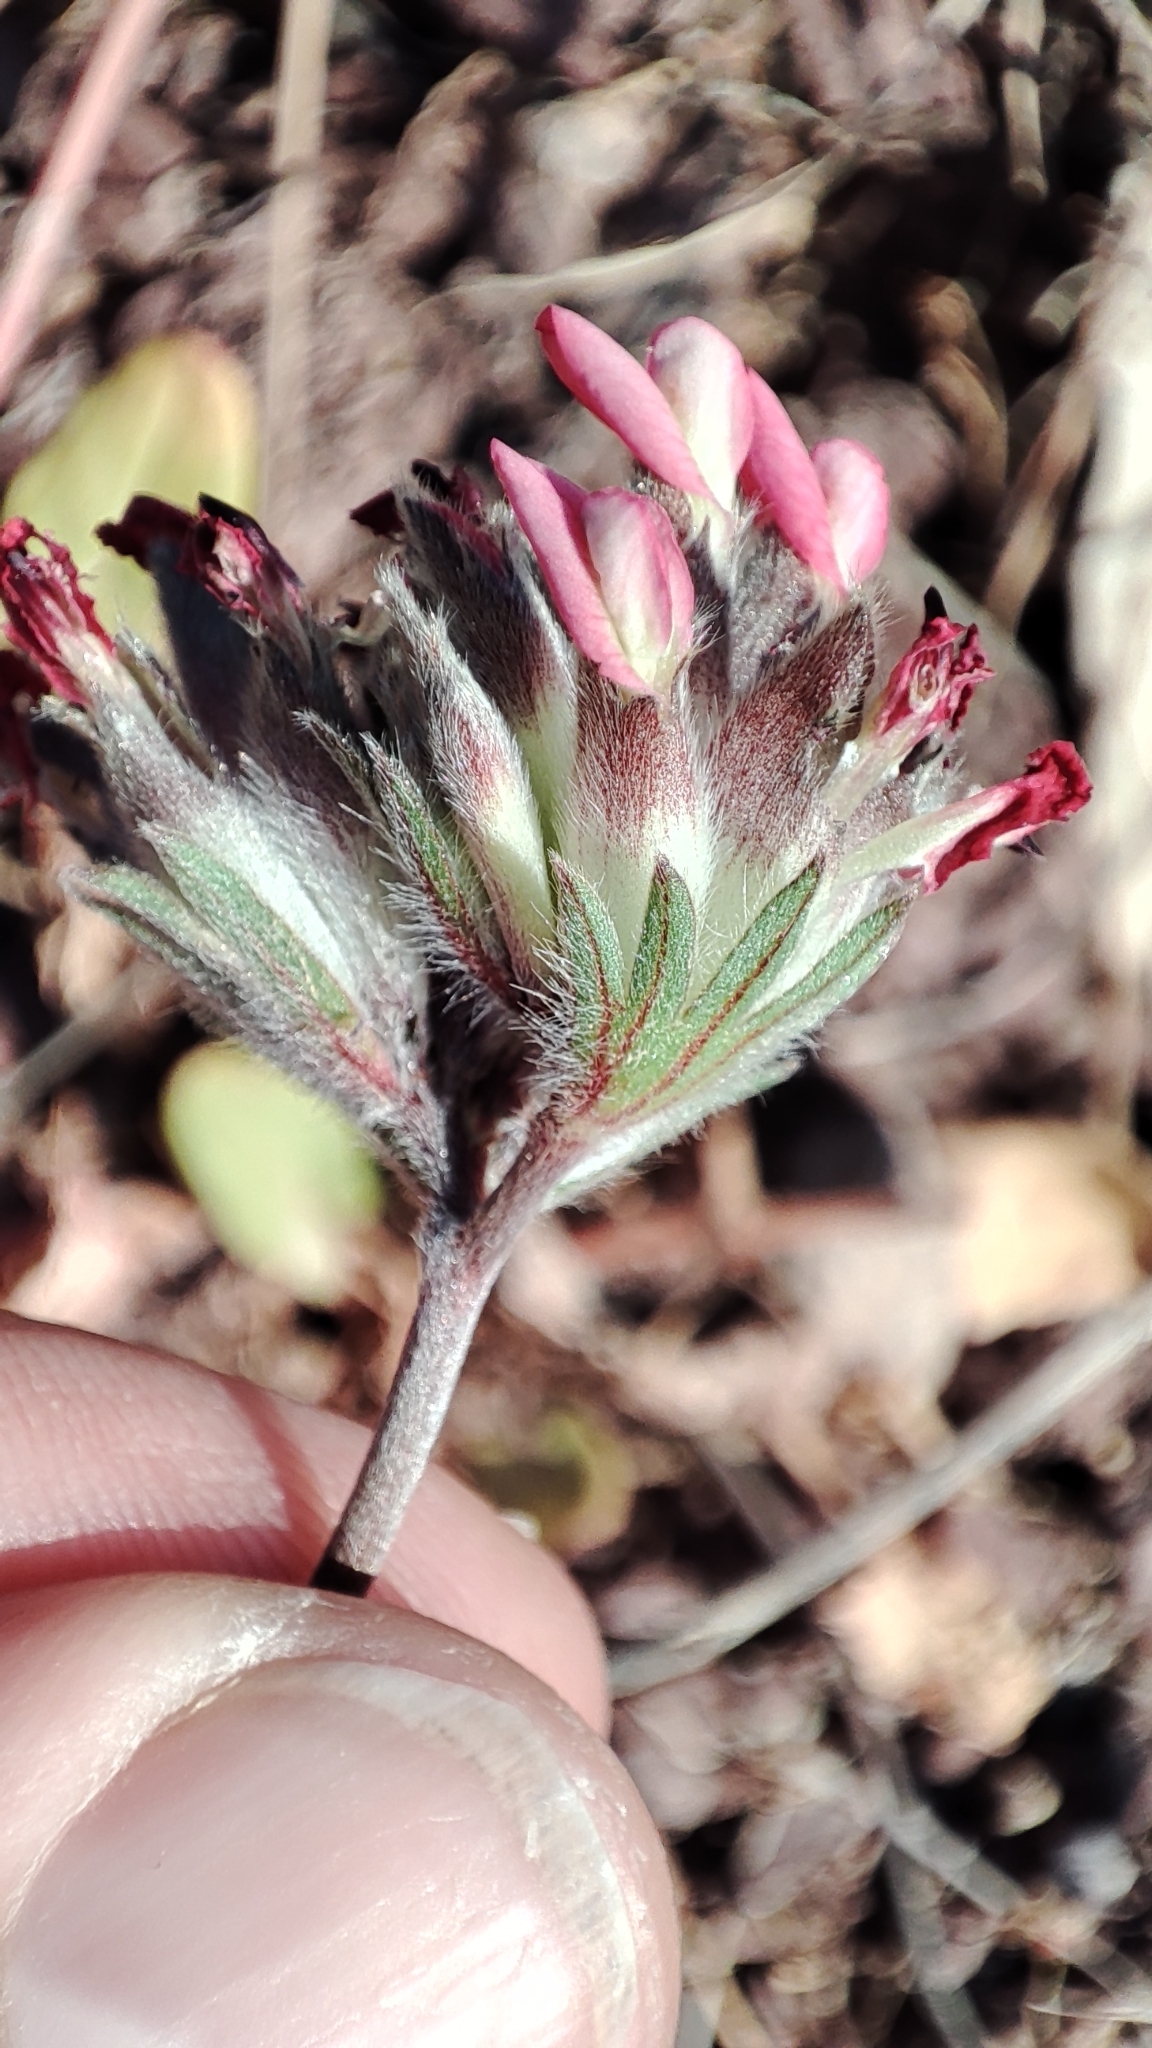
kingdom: Plantae
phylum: Tracheophyta
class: Magnoliopsida
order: Fabales
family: Fabaceae
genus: Anthyllis
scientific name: Anthyllis vulneraria
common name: Kidney vetch
